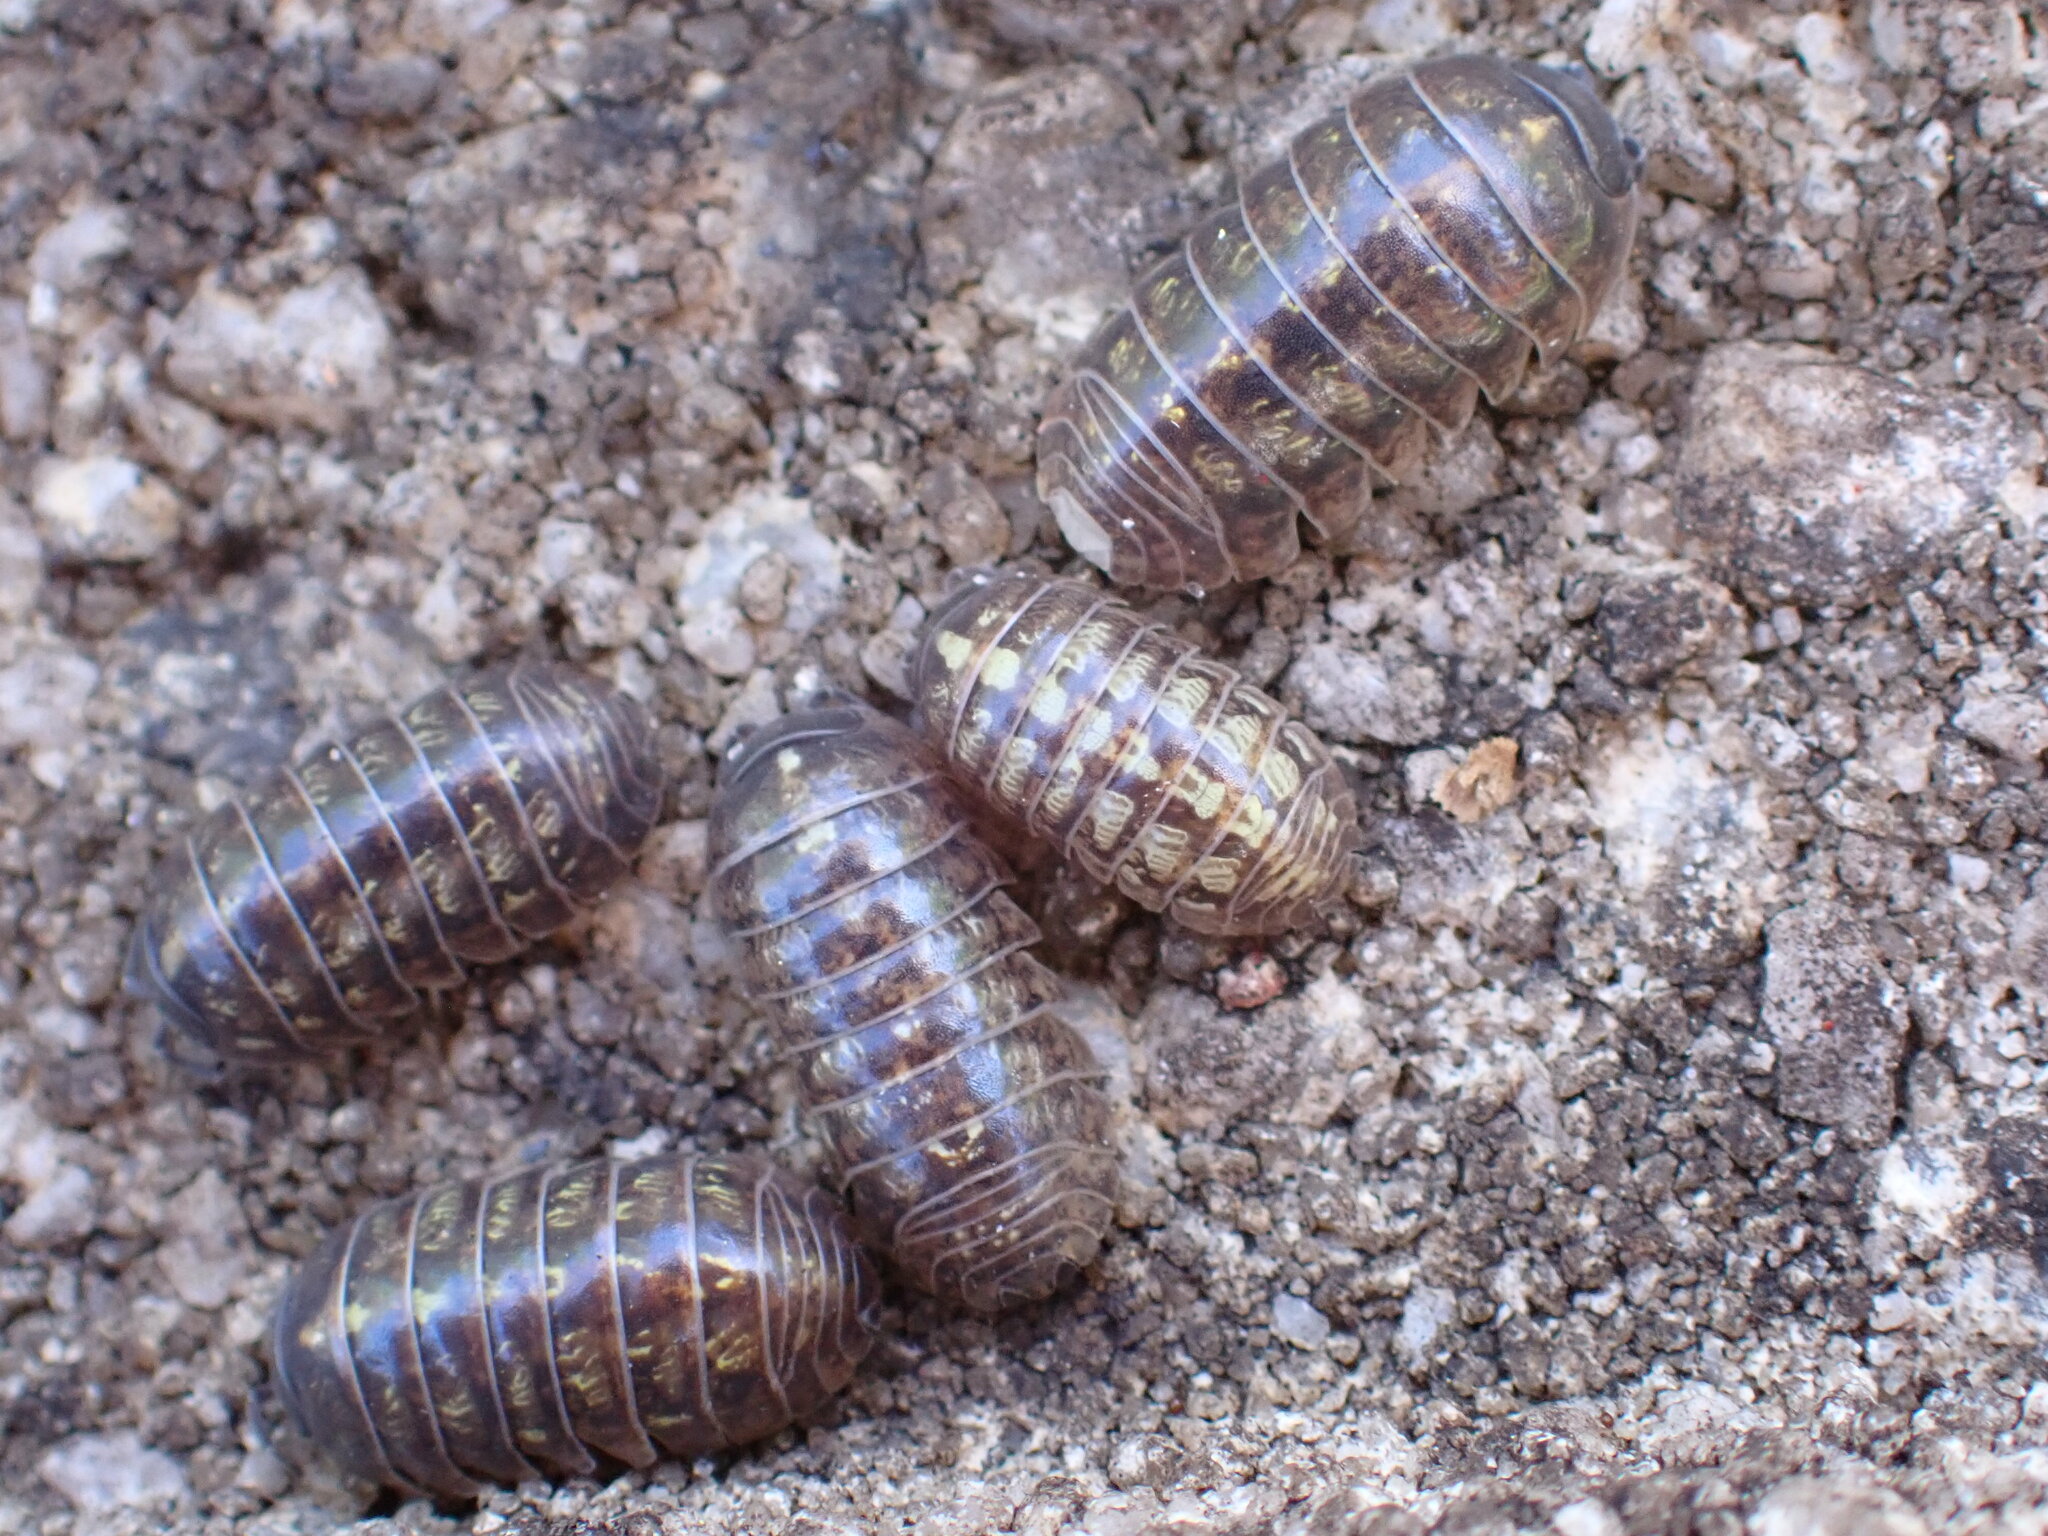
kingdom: Animalia
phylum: Arthropoda
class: Malacostraca
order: Isopoda
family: Armadillidiidae
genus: Armadillidium
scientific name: Armadillidium vulgare
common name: Common pill woodlouse
